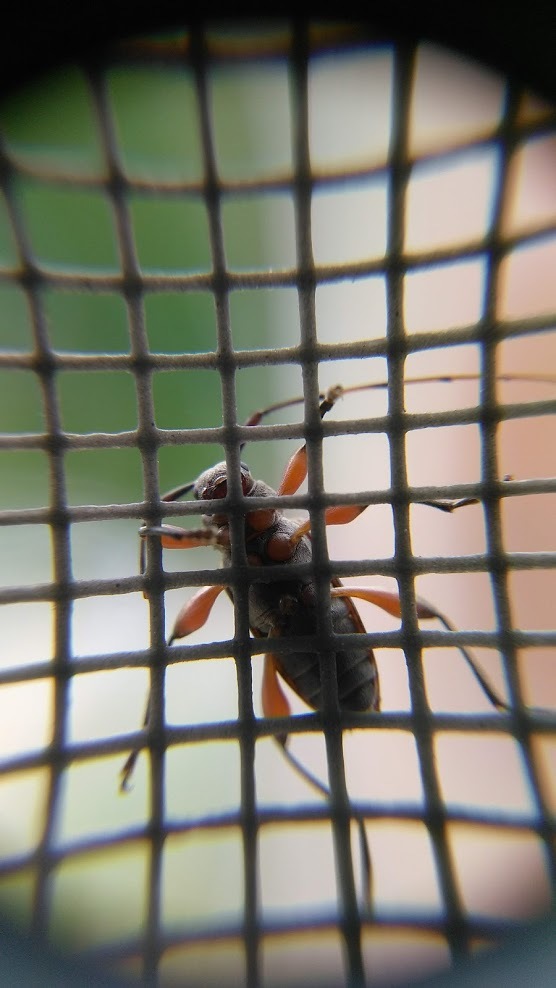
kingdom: Animalia
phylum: Arthropoda
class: Insecta
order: Coleoptera
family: Cerambycidae
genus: Hyperplatys
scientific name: Hyperplatys aspersa
